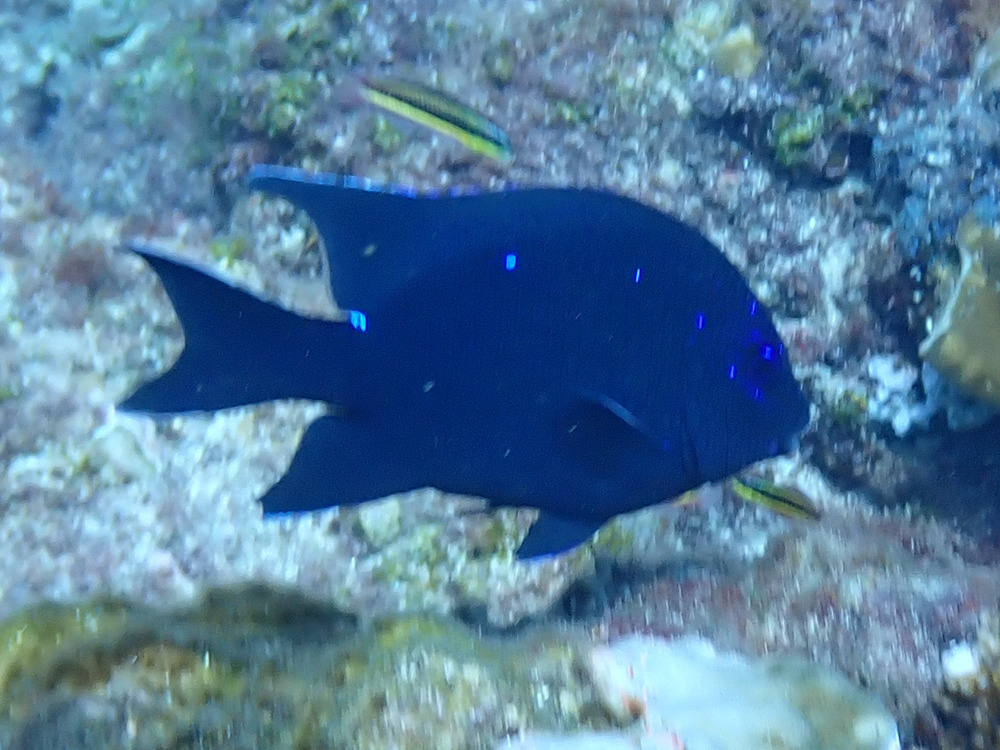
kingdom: Animalia
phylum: Chordata
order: Perciformes
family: Pomacentridae
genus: Microspathodon
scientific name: Microspathodon dorsalis
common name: Giant damselfish
